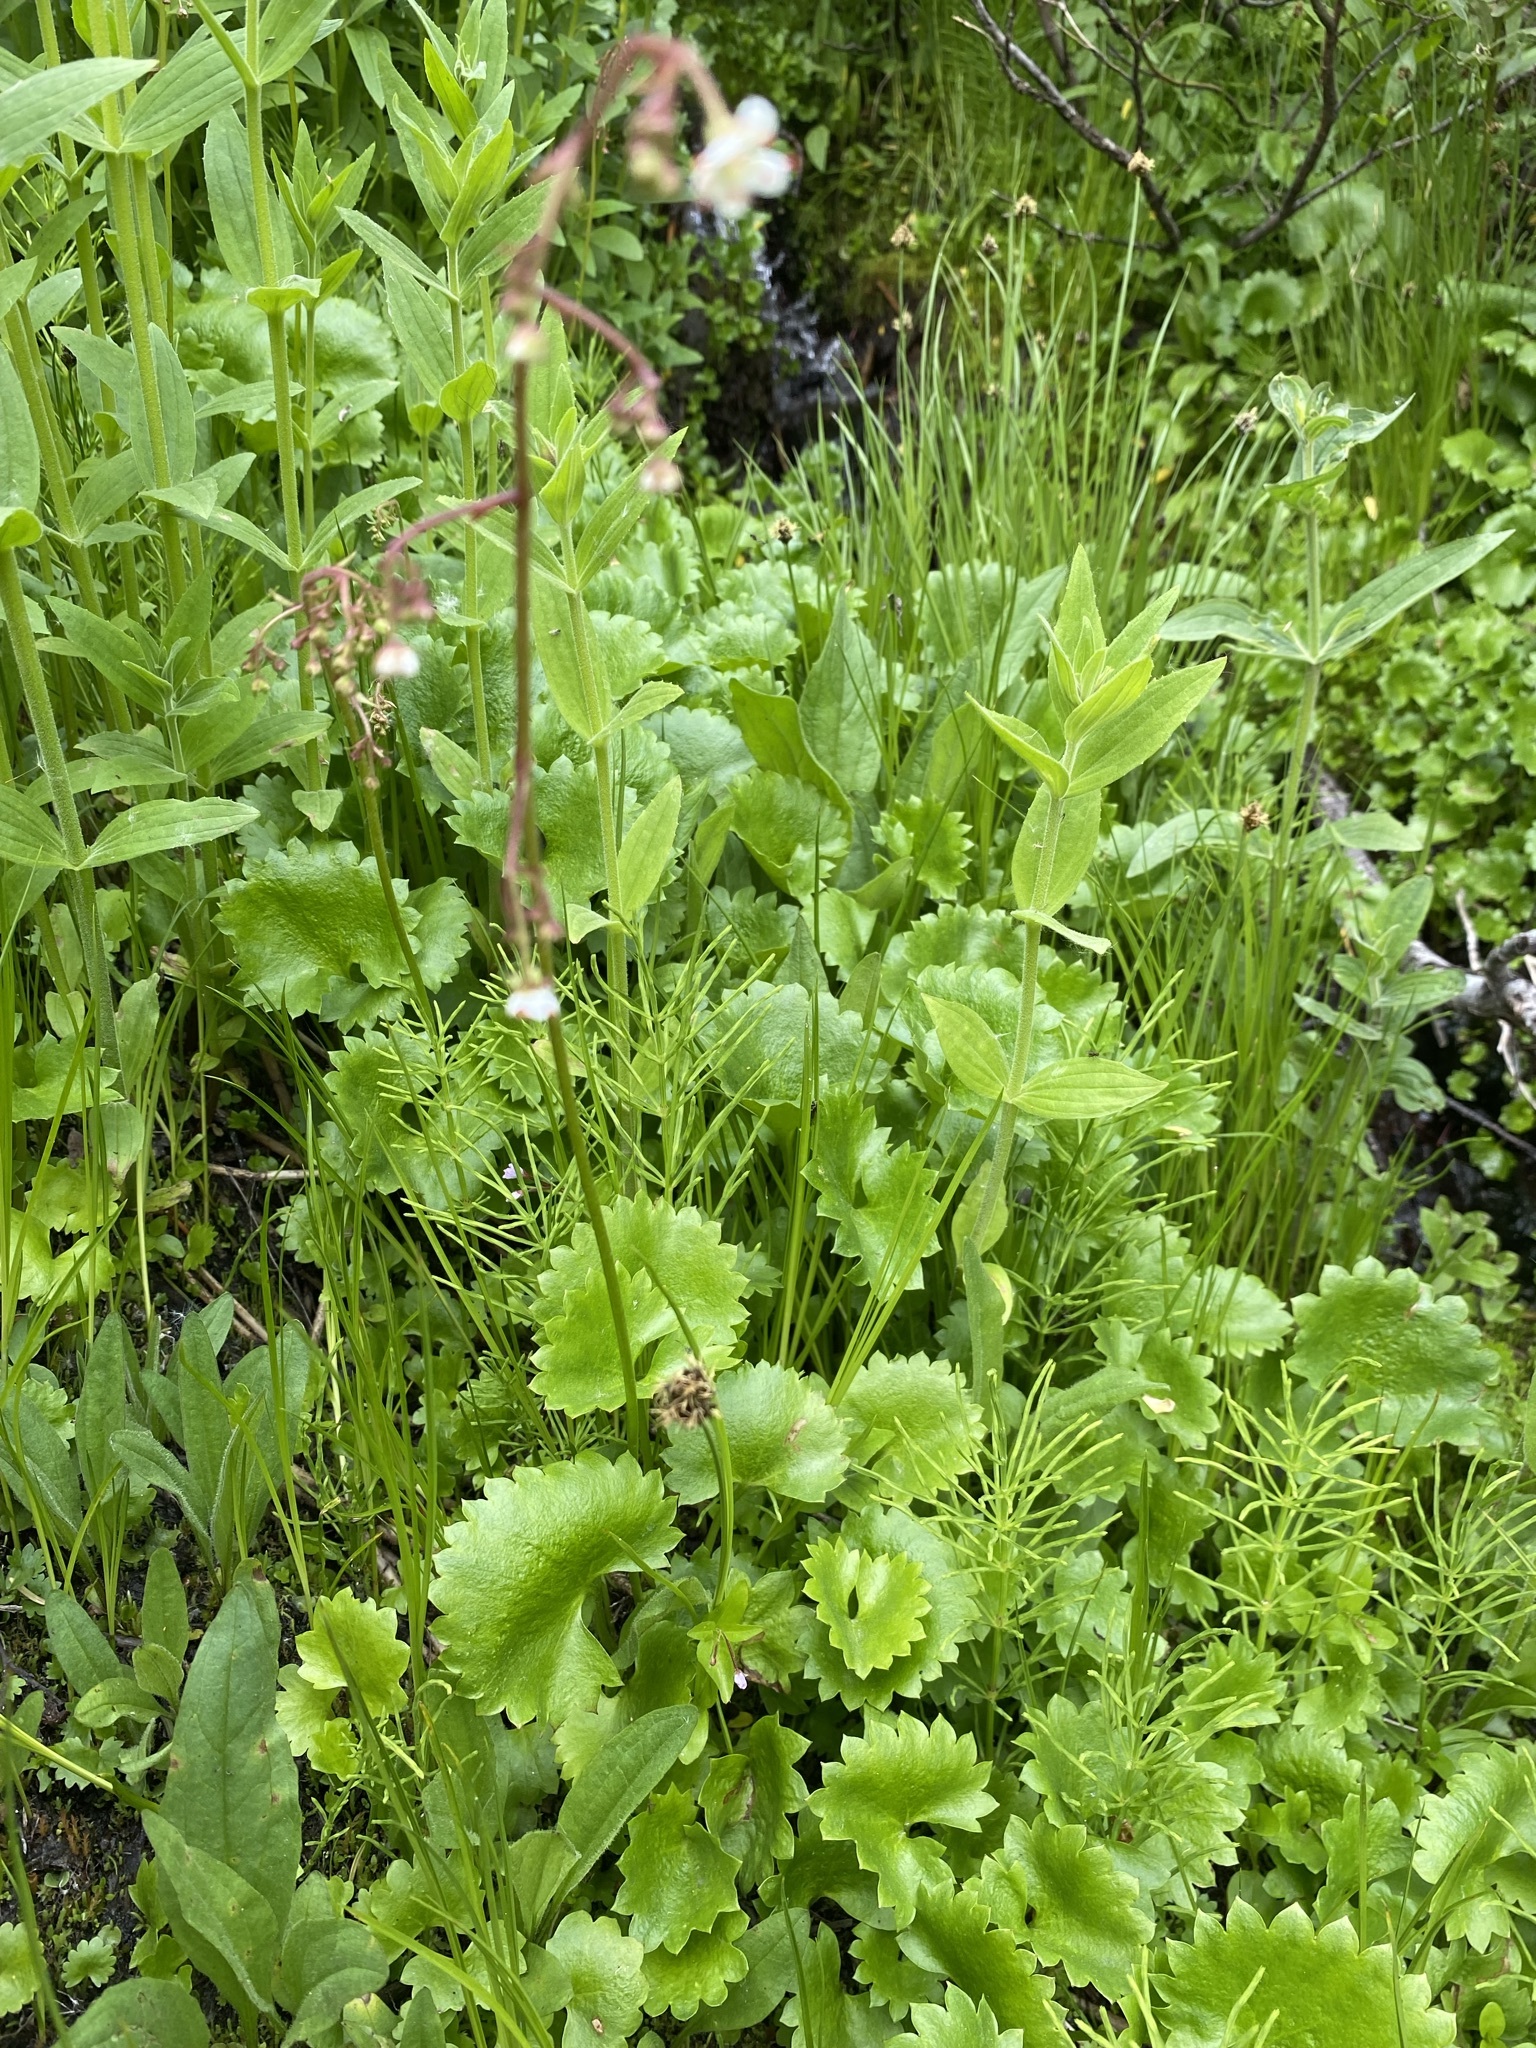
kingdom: Plantae
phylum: Tracheophyta
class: Magnoliopsida
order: Saxifragales
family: Saxifragaceae
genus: Micranthes
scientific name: Micranthes odontoloma
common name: Brook saxifrage
